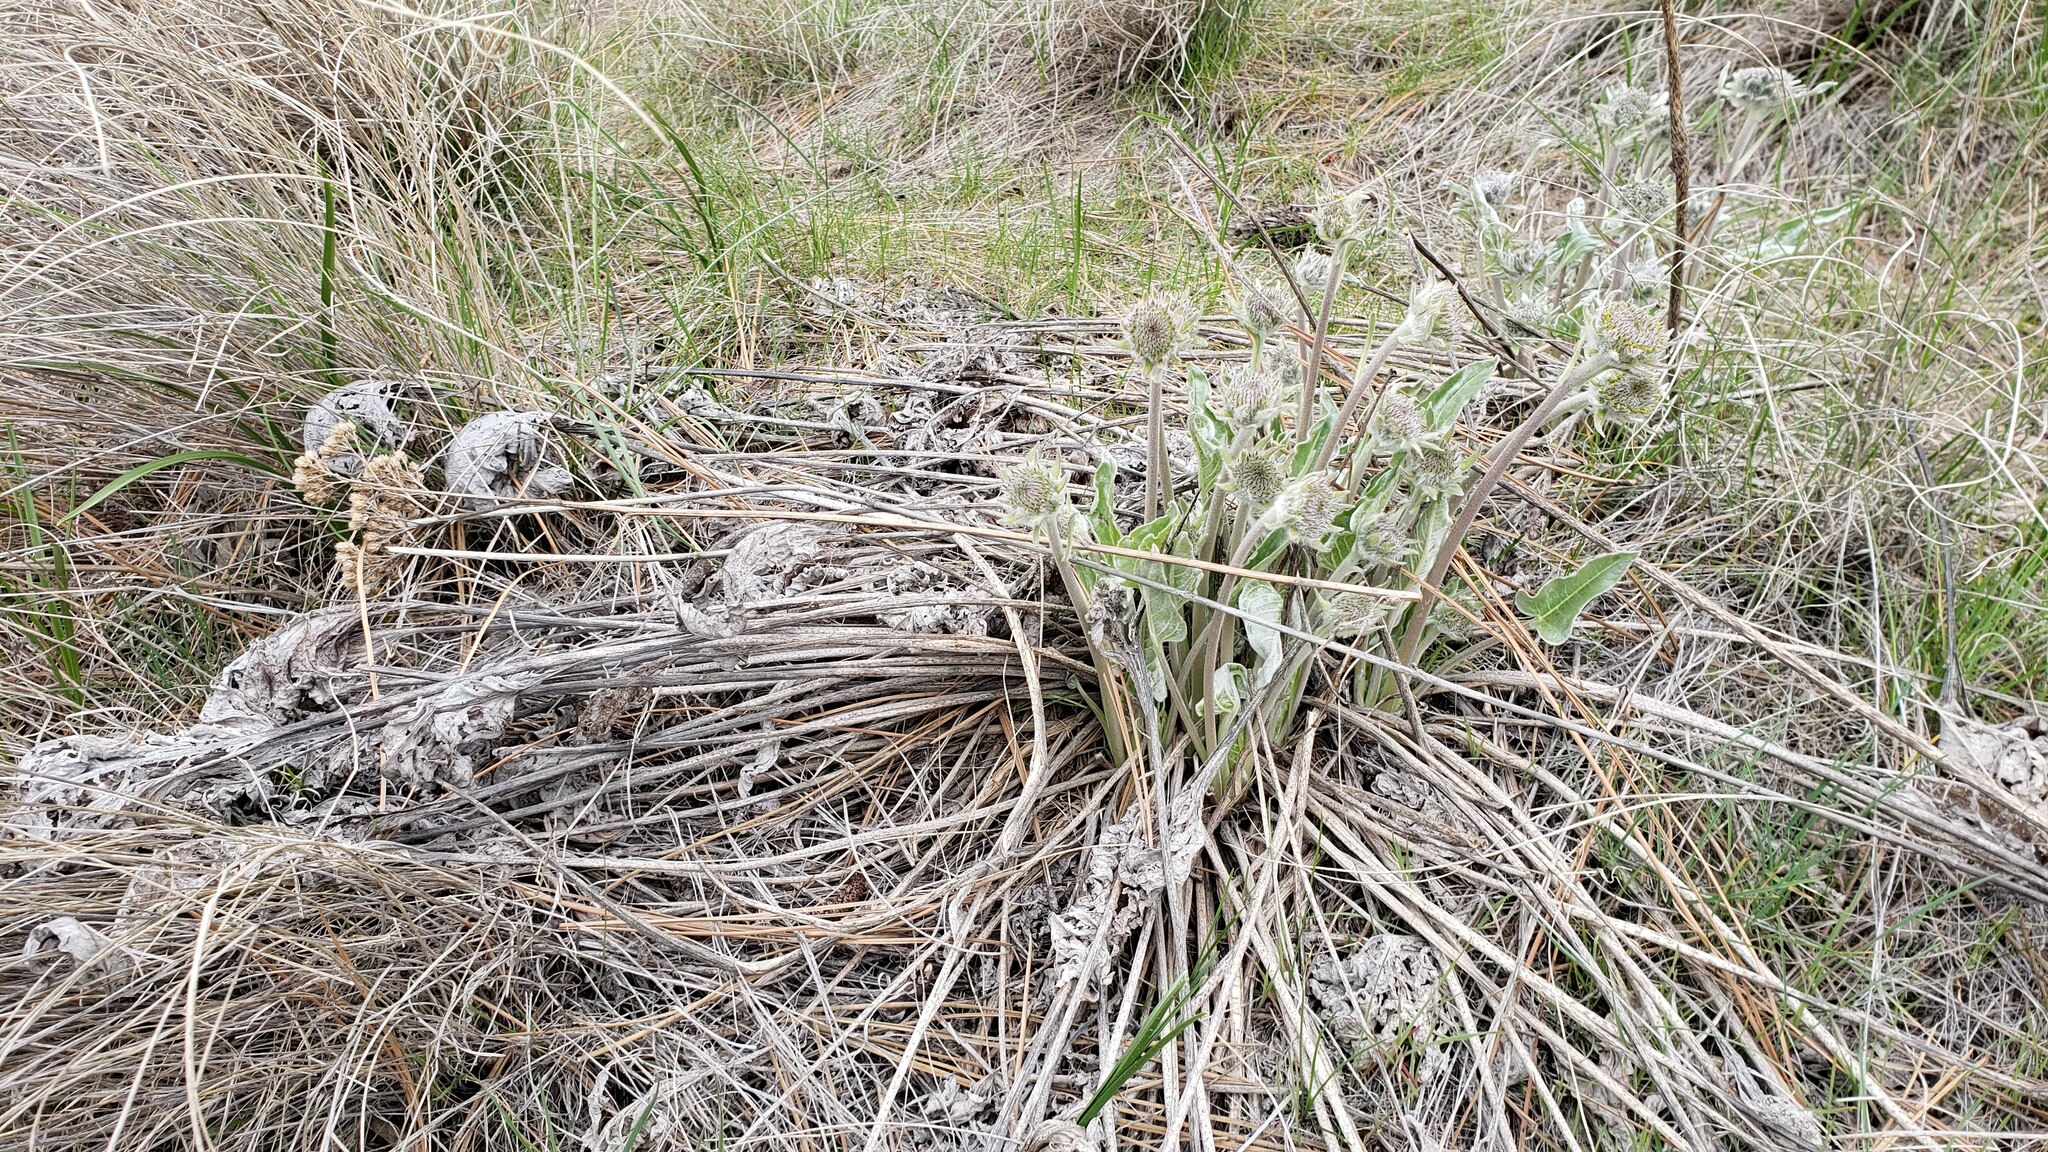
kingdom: Plantae
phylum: Tracheophyta
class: Magnoliopsida
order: Asterales
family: Asteraceae
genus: Wyethia
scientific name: Wyethia sagittata
